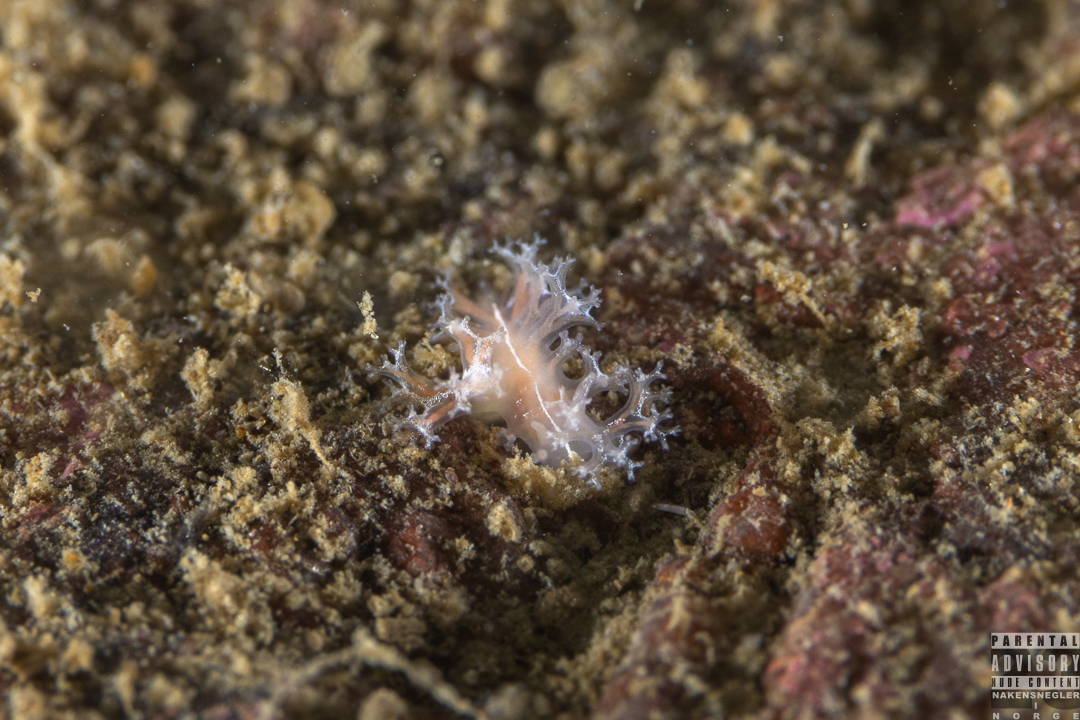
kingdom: Animalia
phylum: Mollusca
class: Gastropoda
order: Nudibranchia
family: Heroidae
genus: Hero
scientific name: Hero formosa
